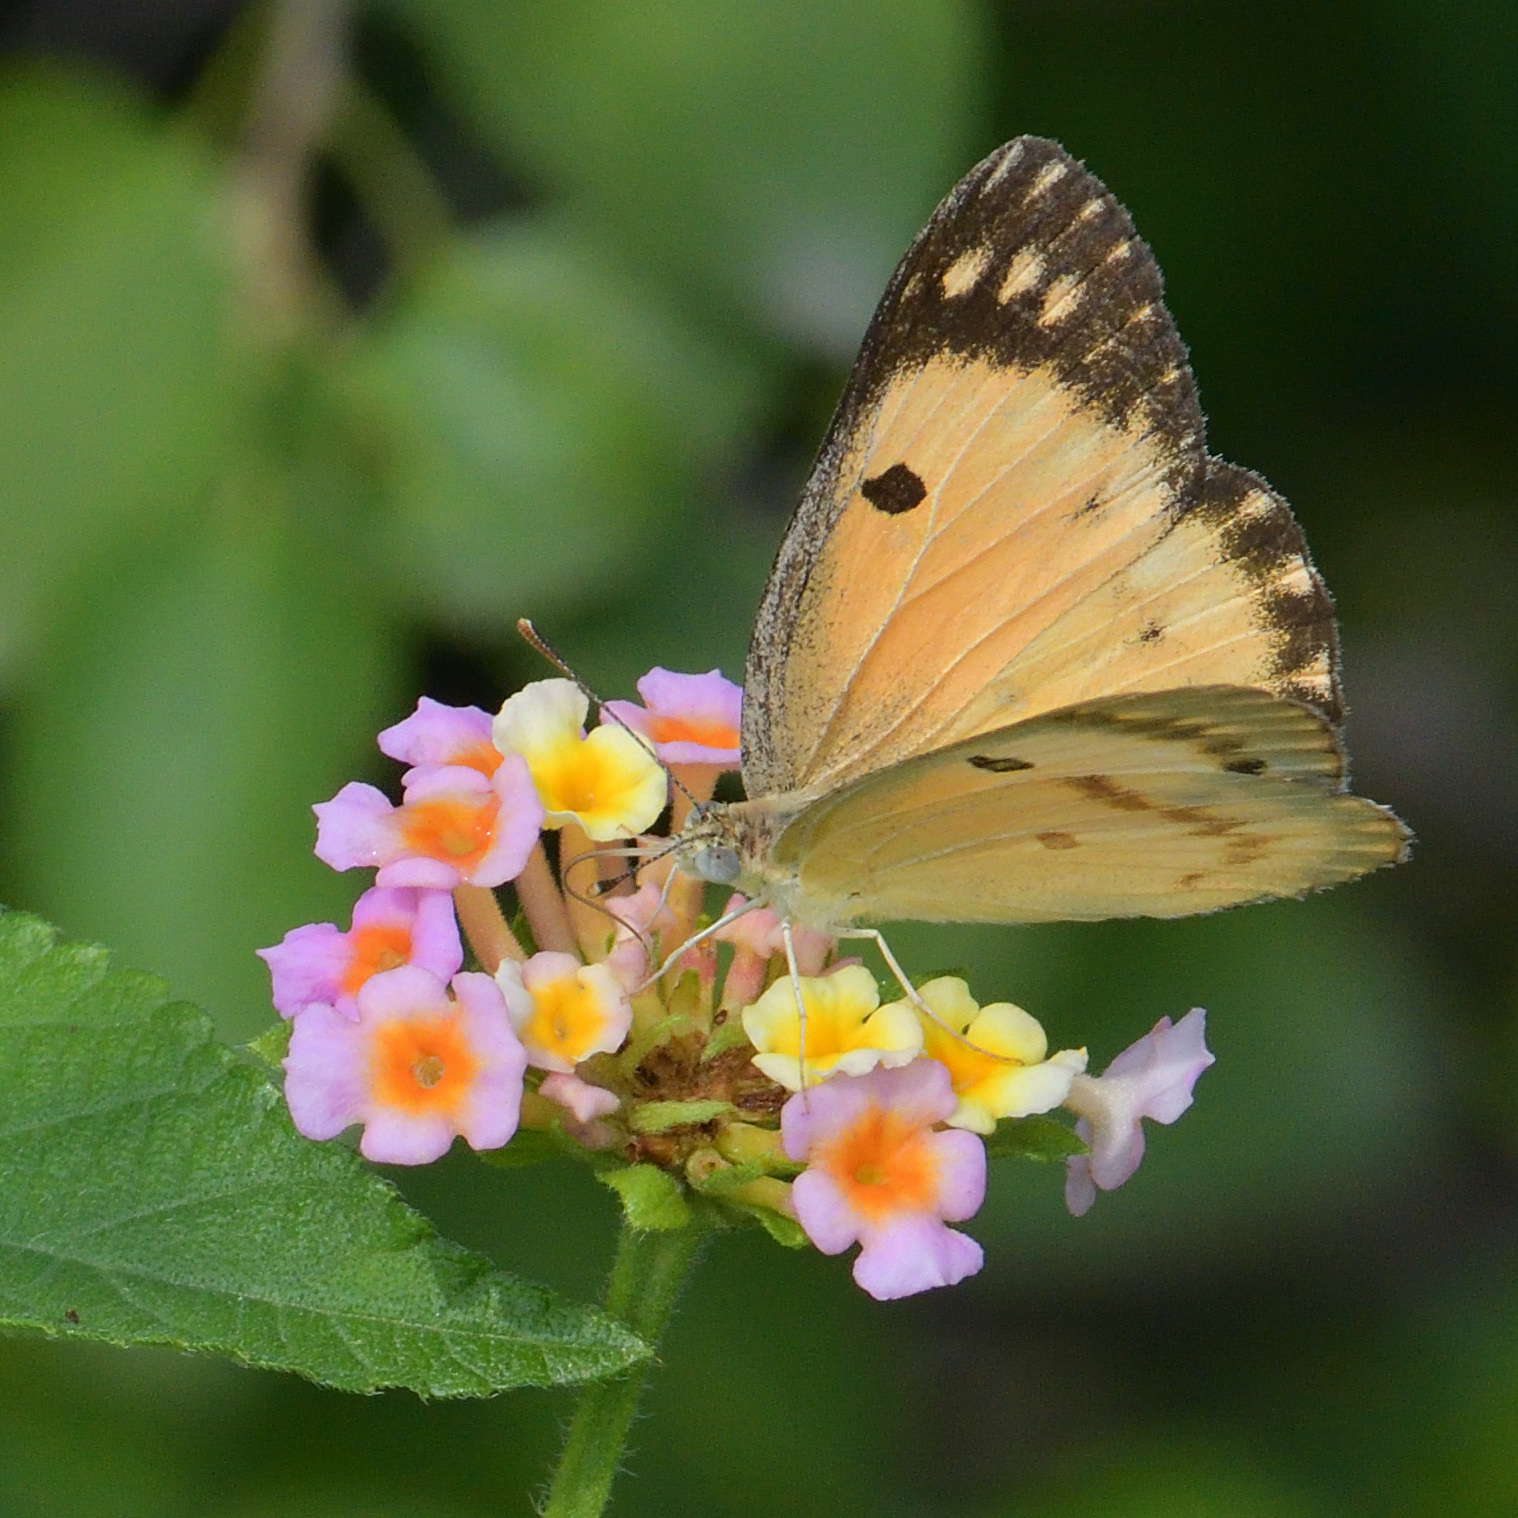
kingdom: Animalia
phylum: Arthropoda
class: Insecta
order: Lepidoptera
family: Pieridae
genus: Colotis
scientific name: Colotis fausta
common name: Large salmon arab
